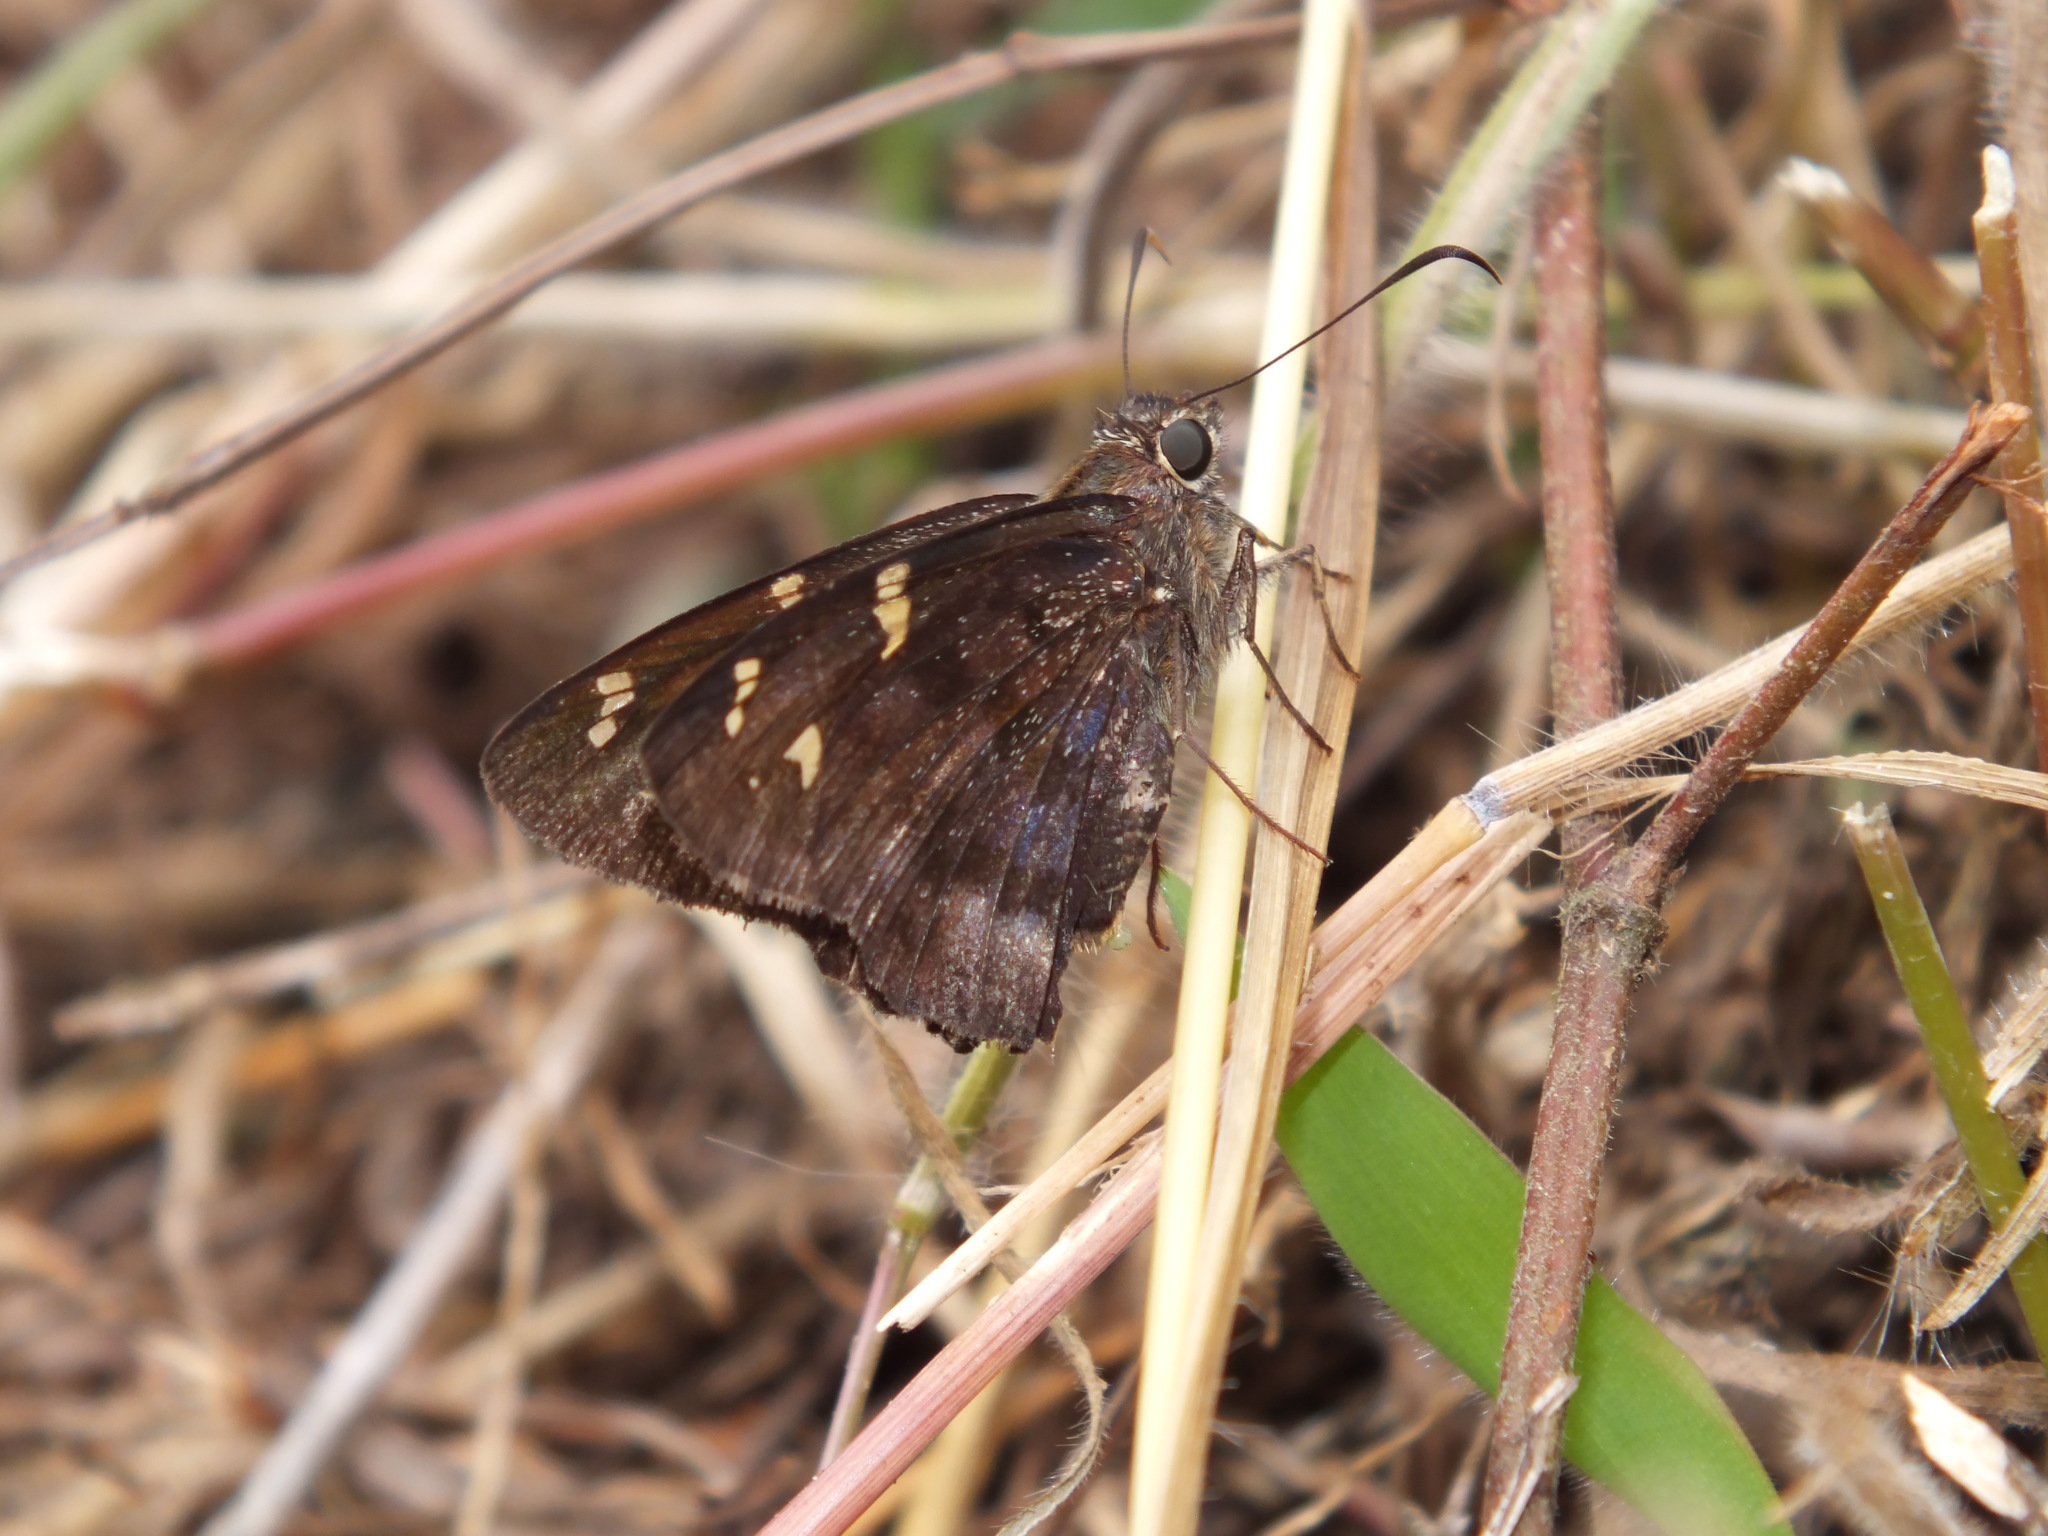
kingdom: Animalia
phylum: Arthropoda
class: Insecta
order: Lepidoptera
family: Hesperiidae
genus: Thorybes
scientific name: Thorybes
